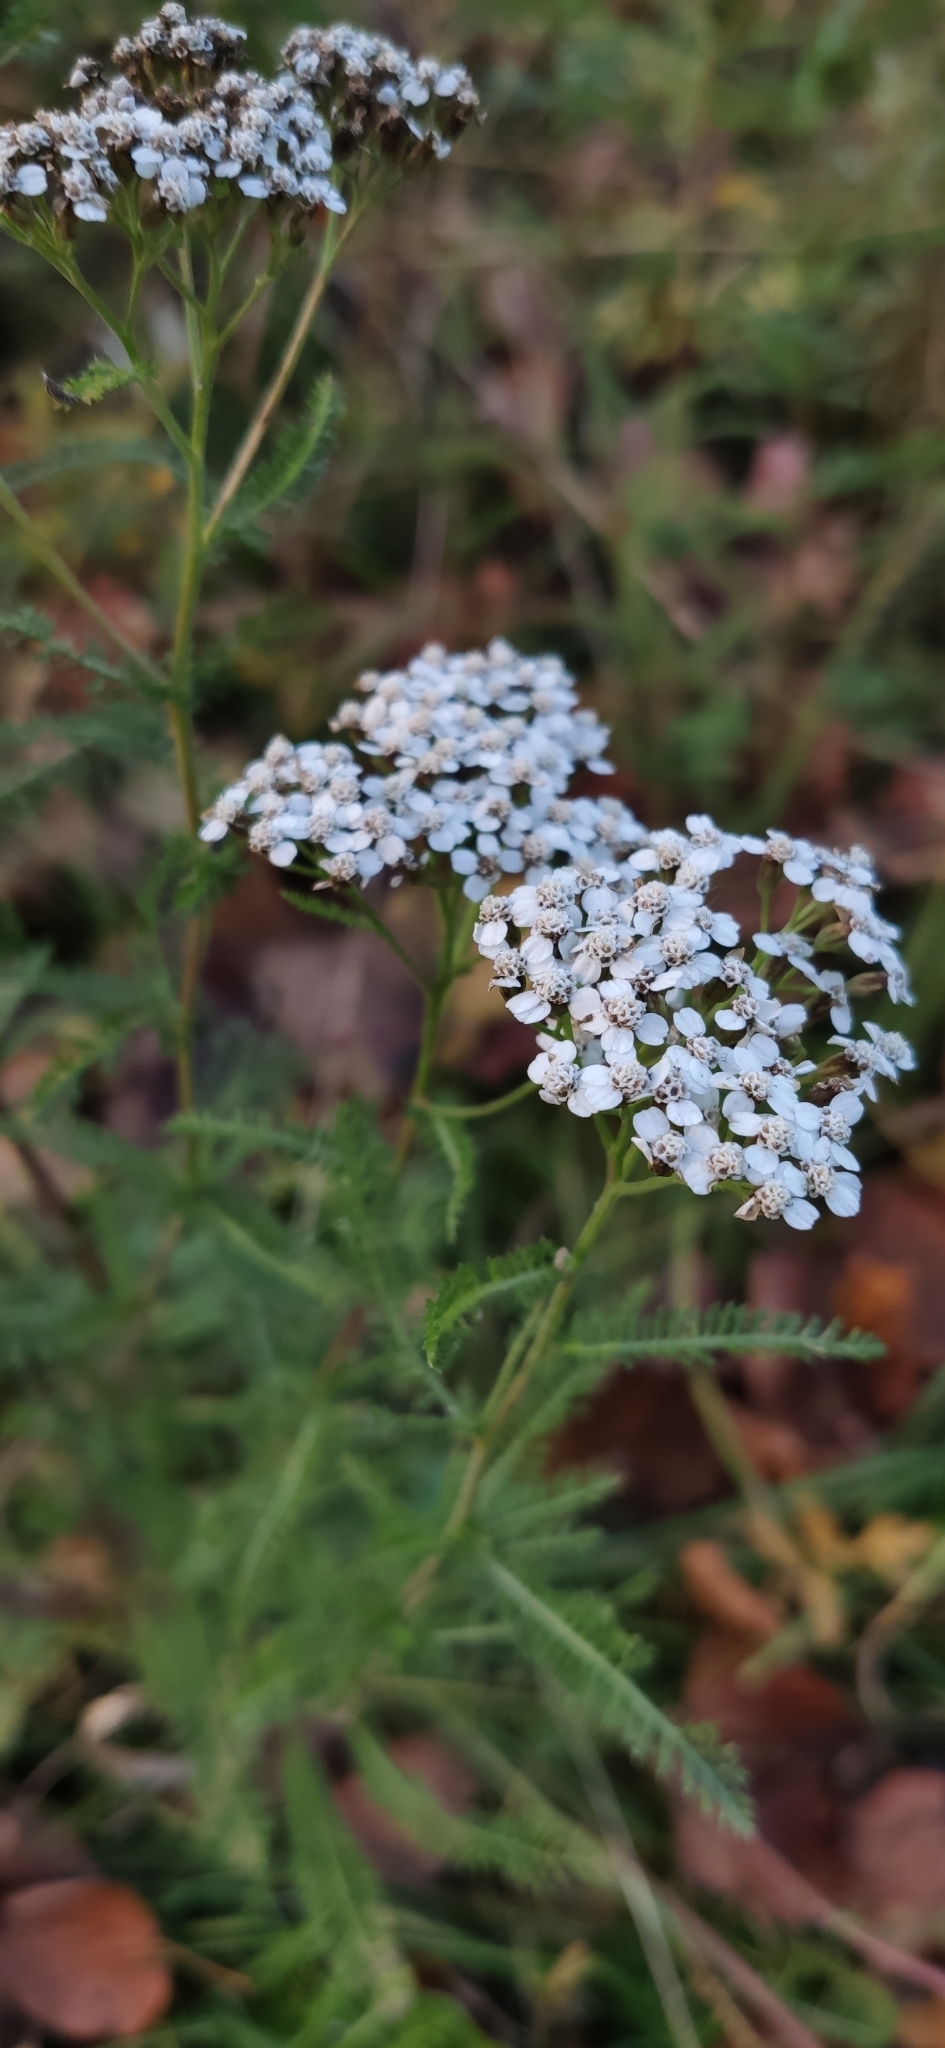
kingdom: Plantae
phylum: Tracheophyta
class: Magnoliopsida
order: Asterales
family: Asteraceae
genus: Achillea
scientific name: Achillea millefolium
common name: Yarrow
